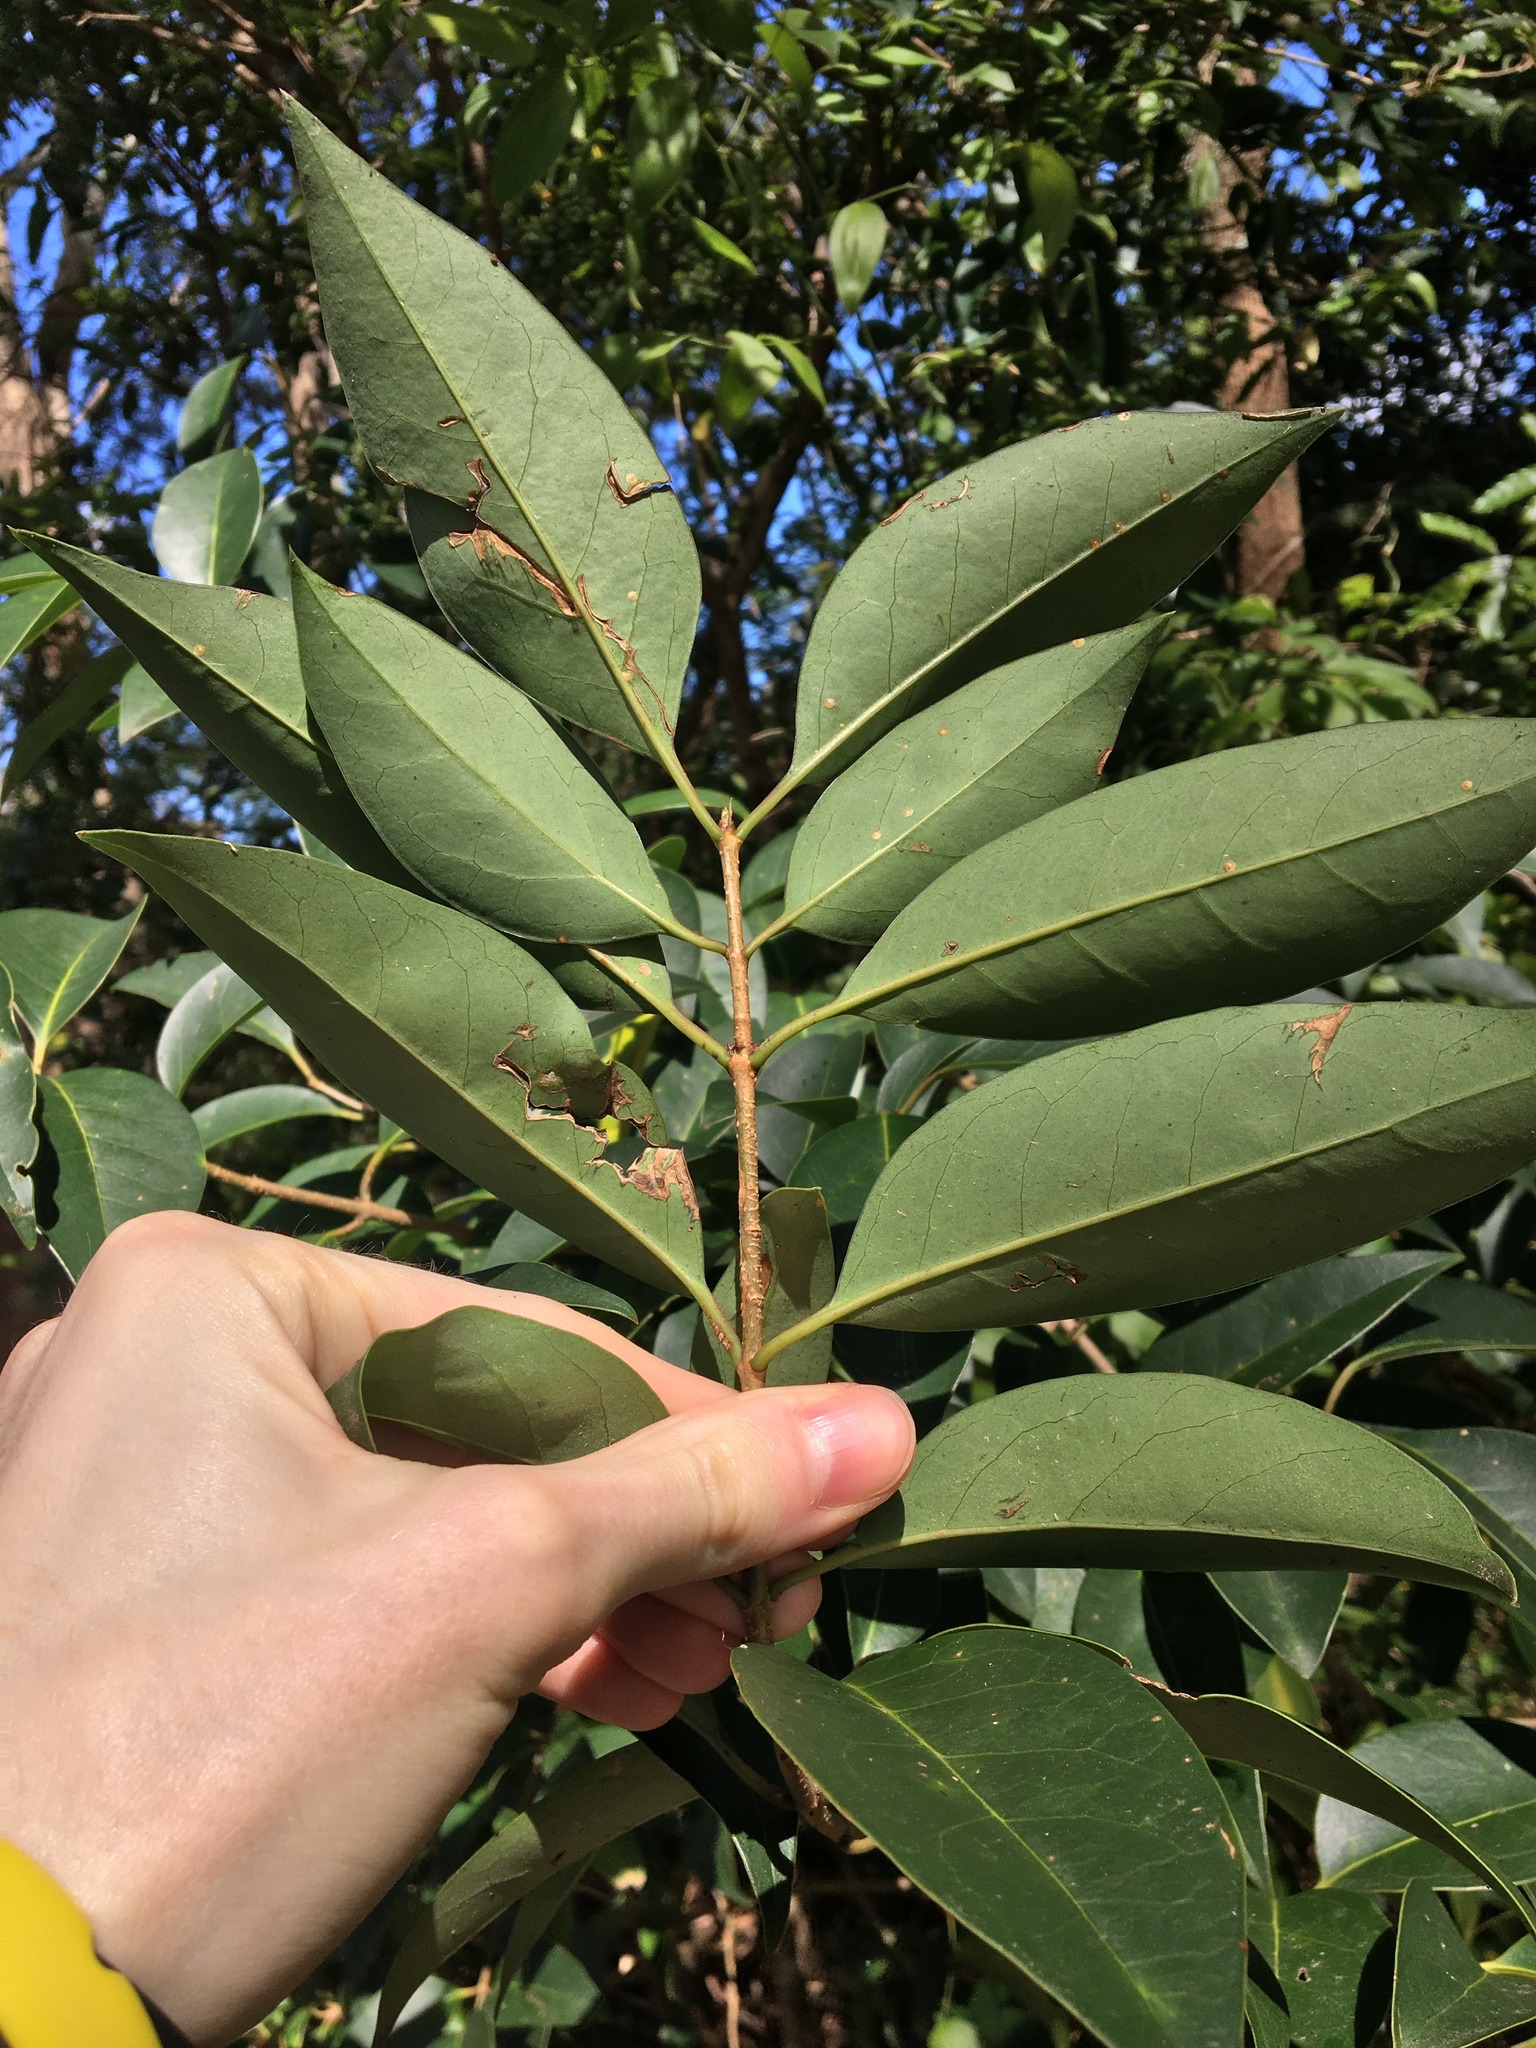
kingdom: Plantae
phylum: Tracheophyta
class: Magnoliopsida
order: Lamiales
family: Oleaceae
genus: Ligustrum
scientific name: Ligustrum lucidum
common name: Glossy privet
